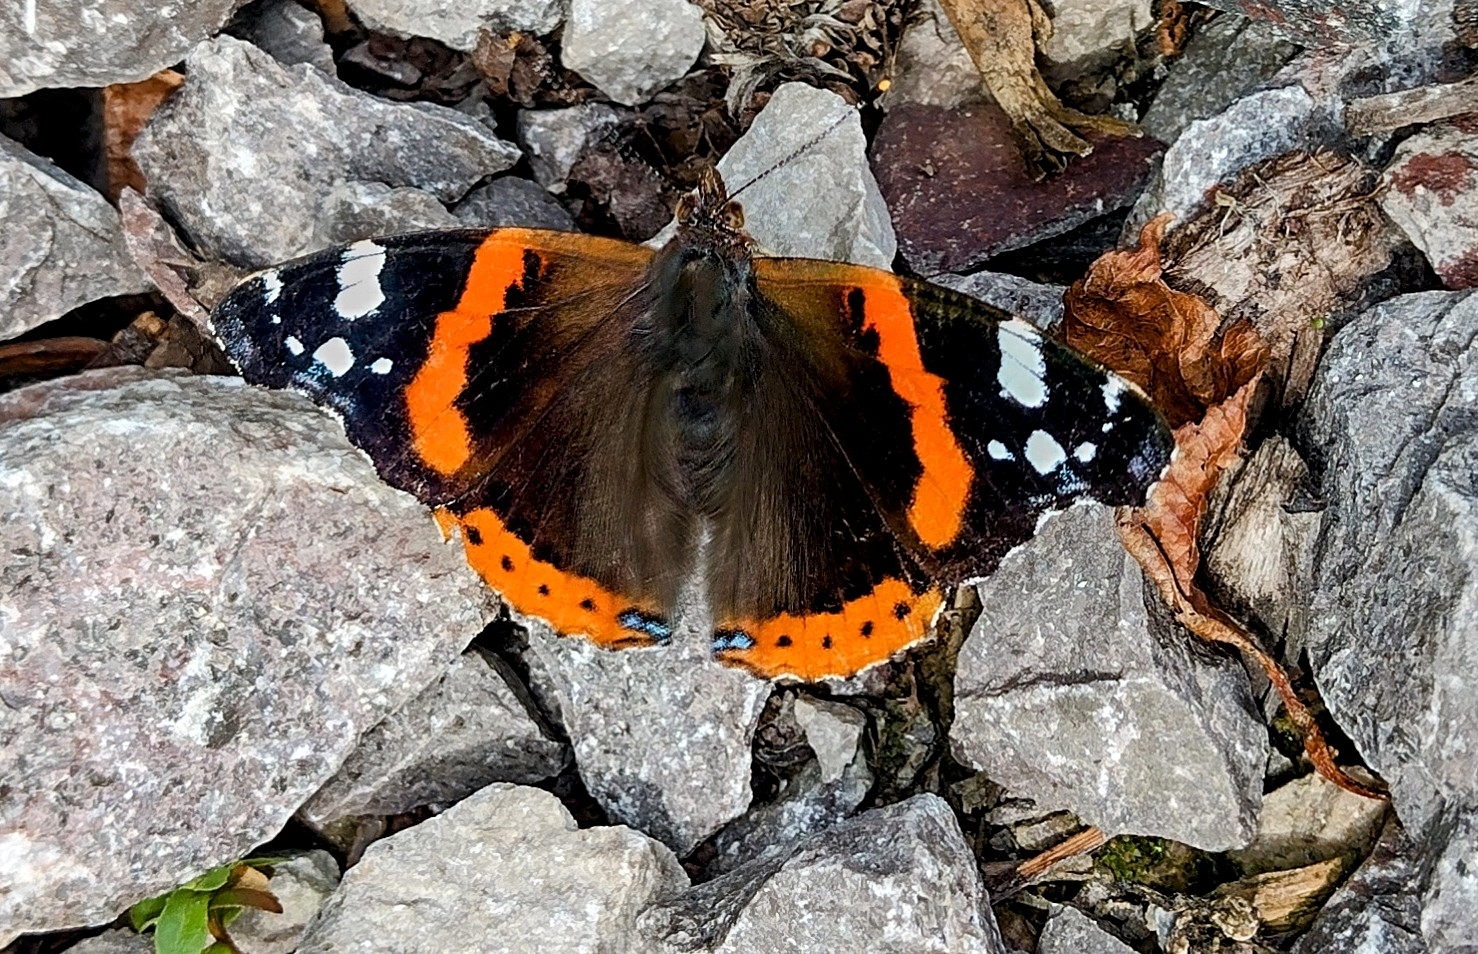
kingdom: Animalia
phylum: Arthropoda
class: Insecta
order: Lepidoptera
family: Nymphalidae
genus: Vanessa
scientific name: Vanessa atalanta
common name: Red admiral
